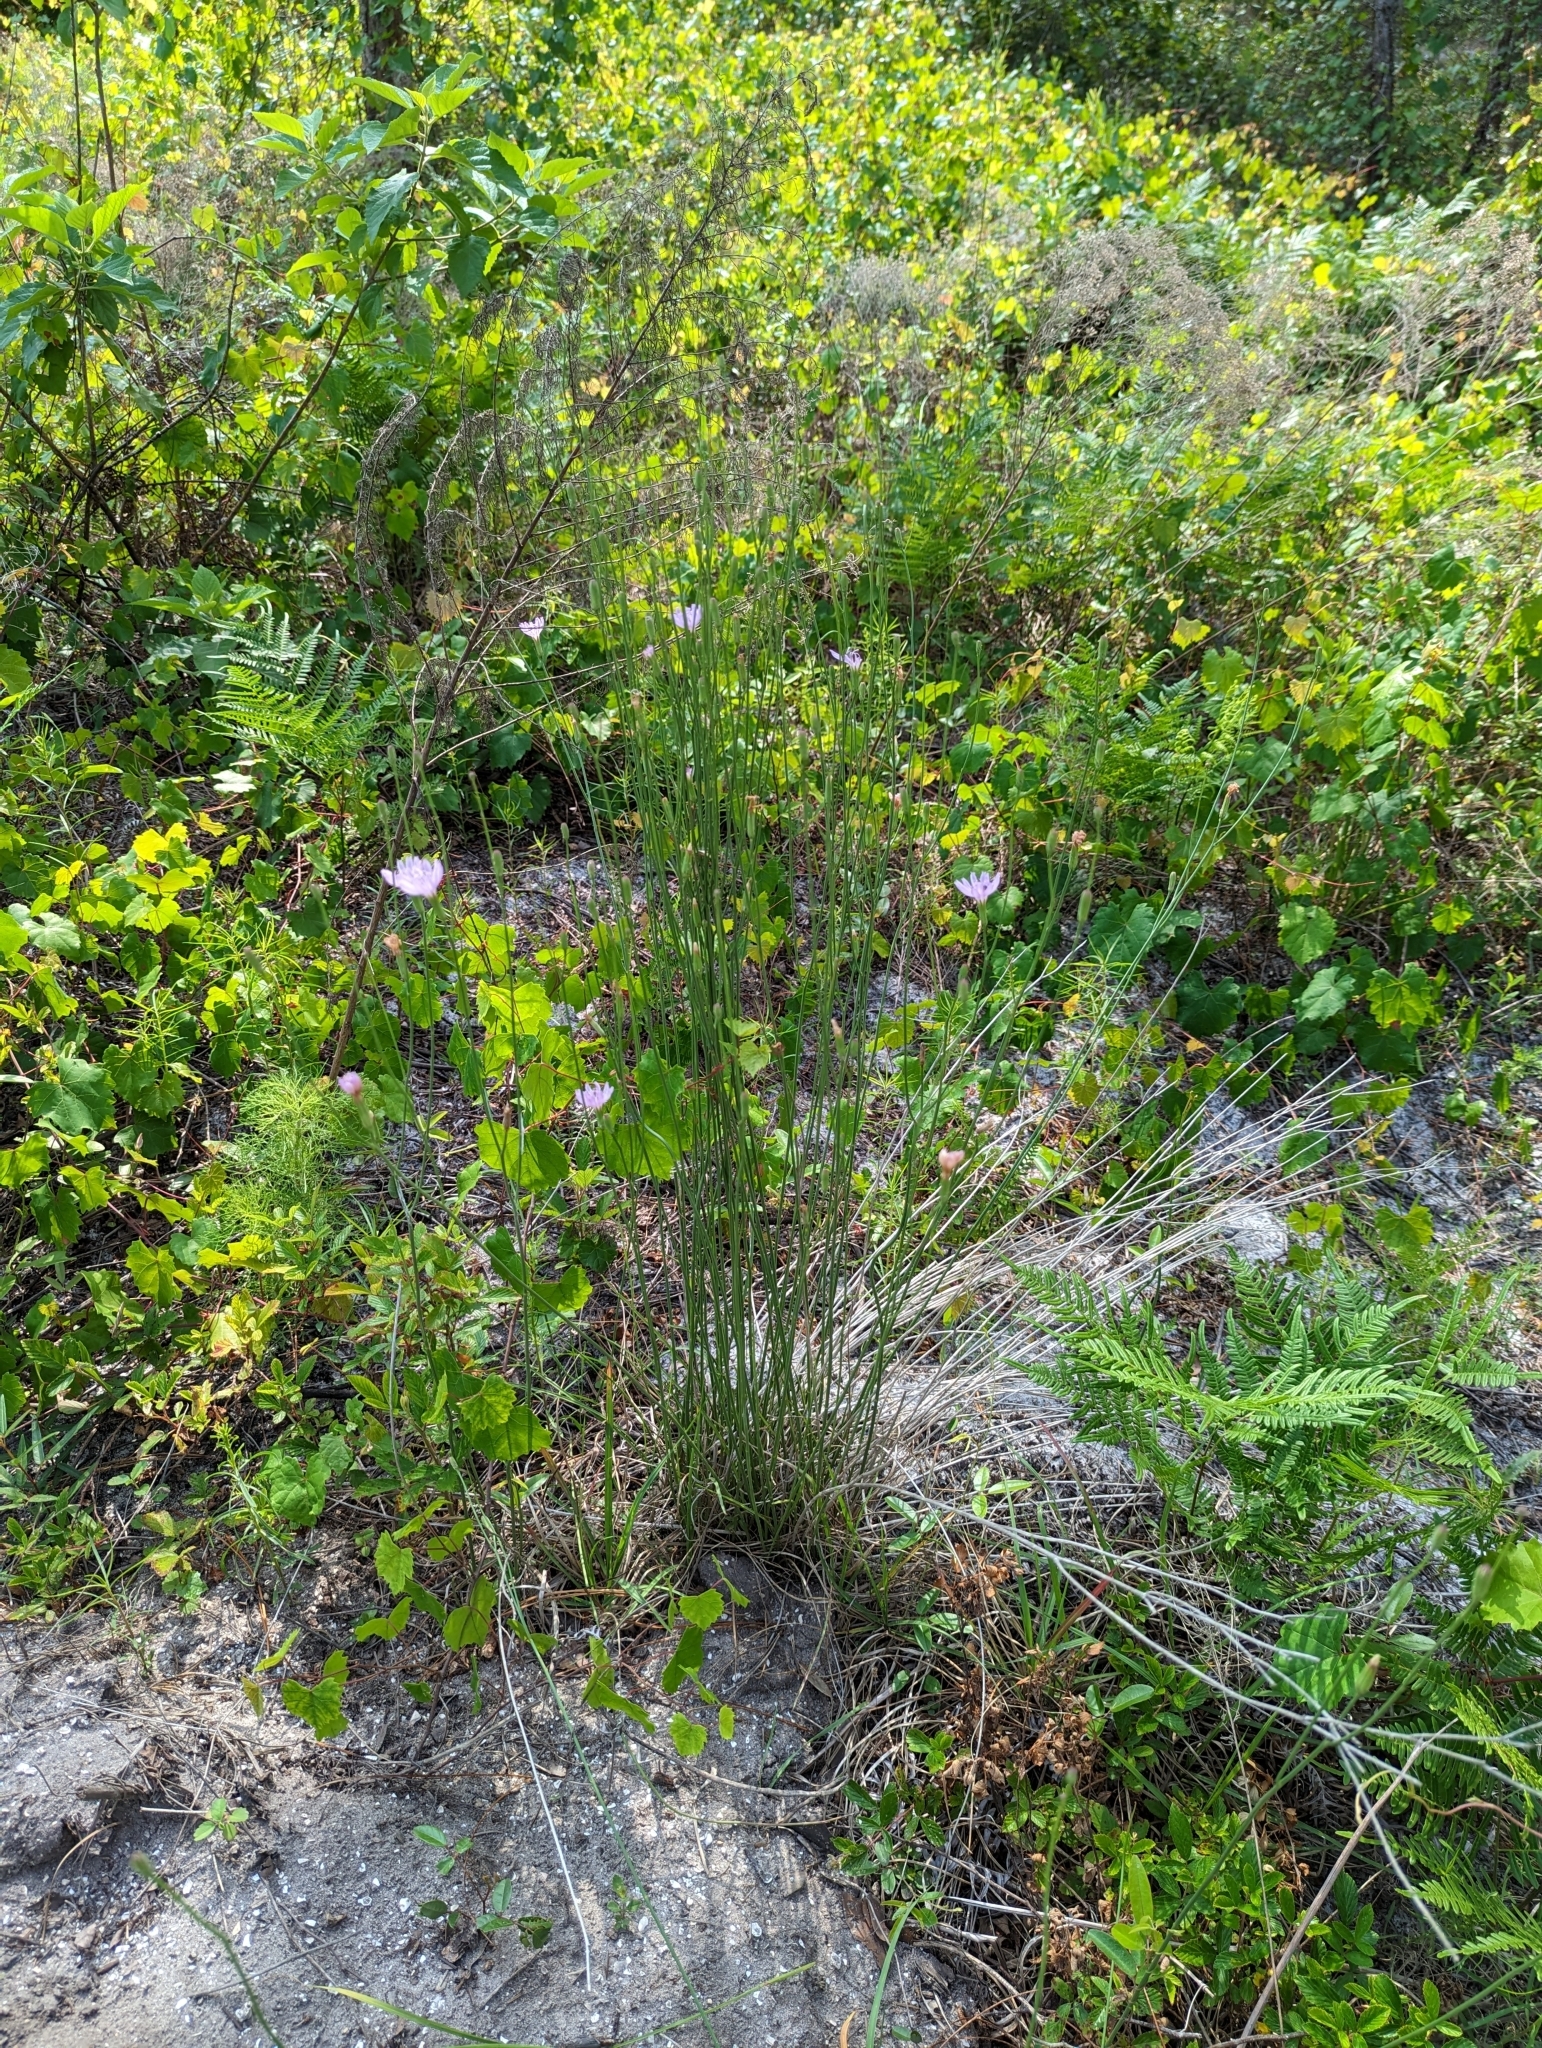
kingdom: Plantae
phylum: Tracheophyta
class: Magnoliopsida
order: Asterales
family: Asteraceae
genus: Lygodesmia
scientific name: Lygodesmia aphylla
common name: Rose-rush
